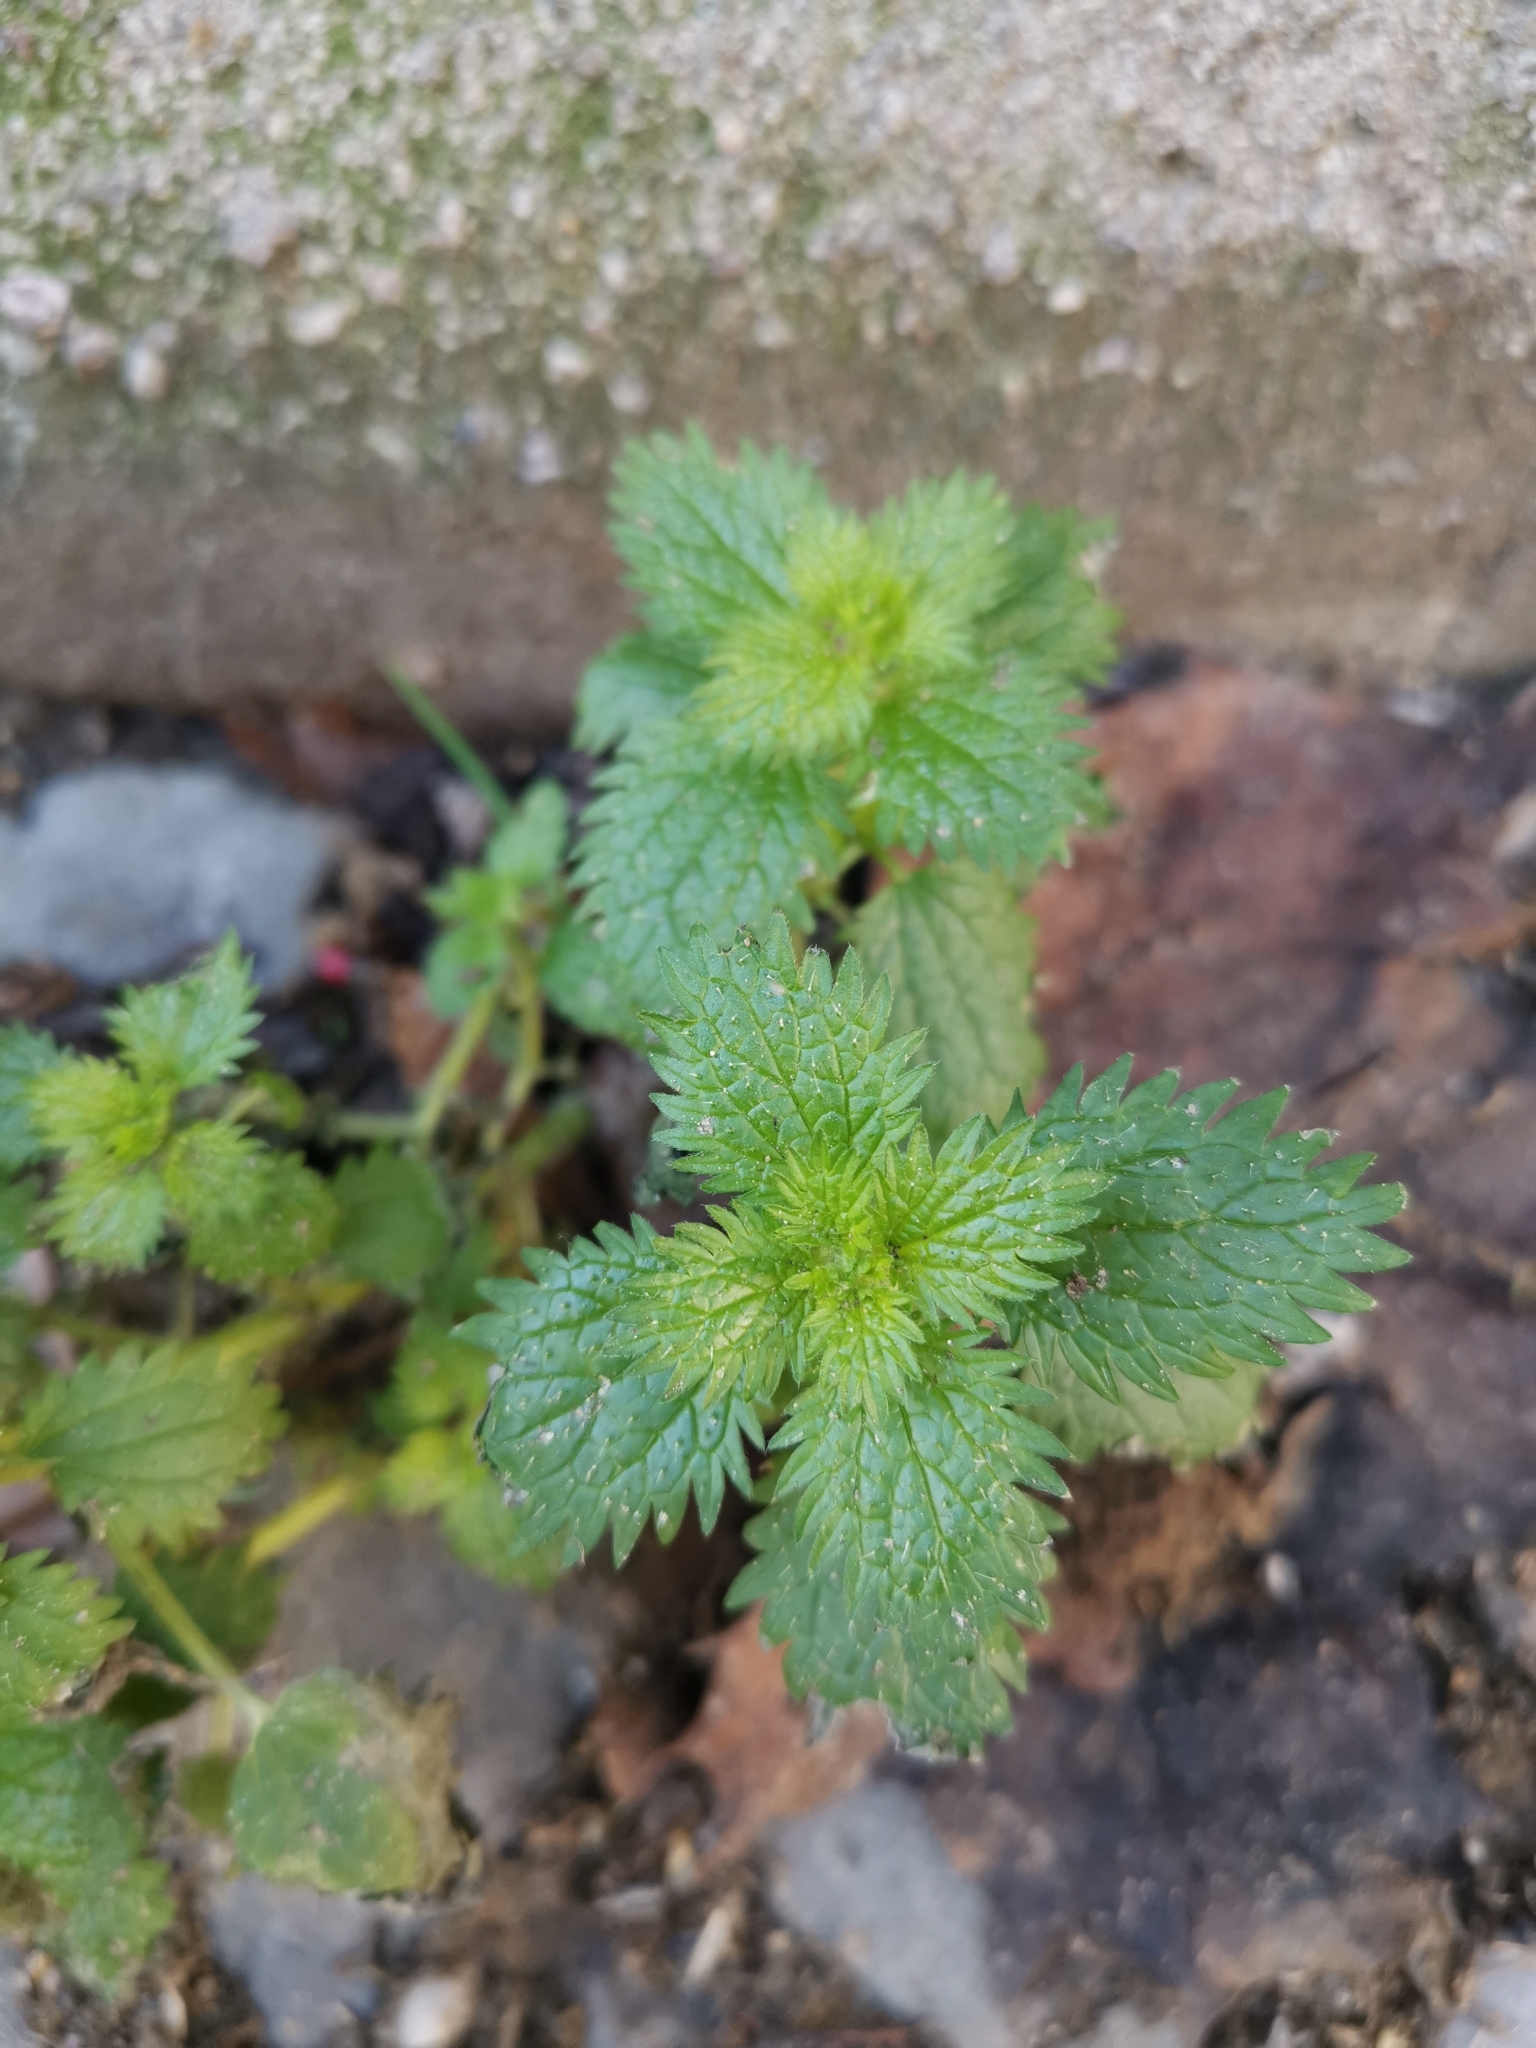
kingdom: Plantae
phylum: Tracheophyta
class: Magnoliopsida
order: Rosales
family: Urticaceae
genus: Urtica
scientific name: Urtica urens
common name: Dwarf nettle
